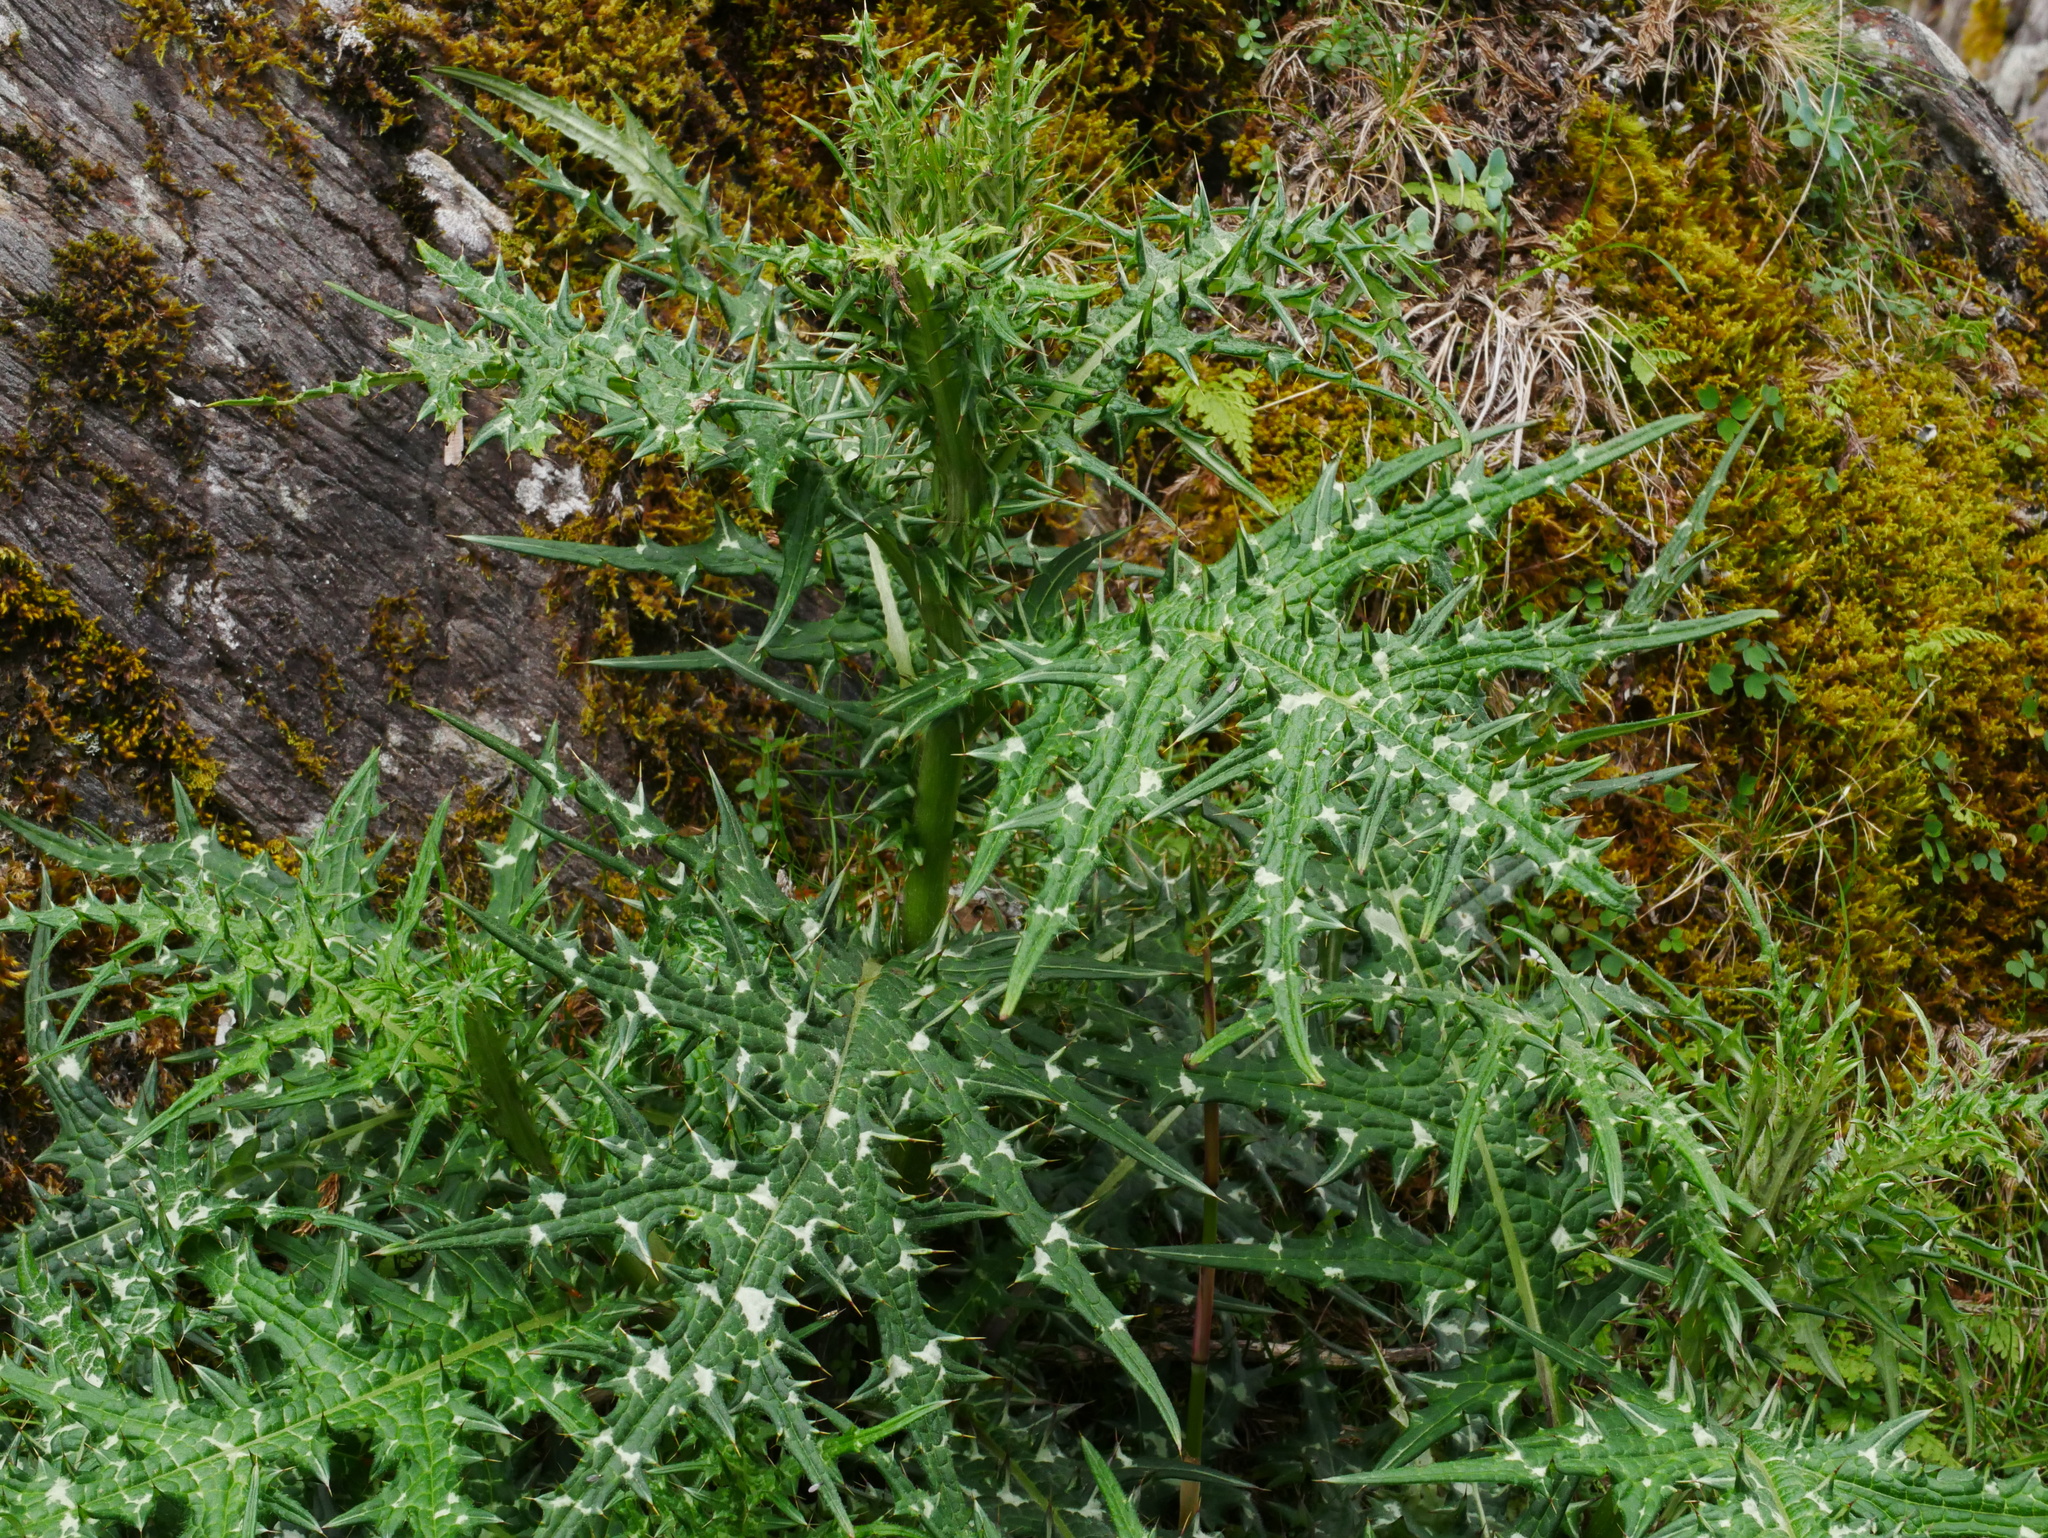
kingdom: Plantae
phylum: Tracheophyta
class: Magnoliopsida
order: Asterales
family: Asteraceae
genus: Cirsium
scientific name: Cirsium tatakaense
